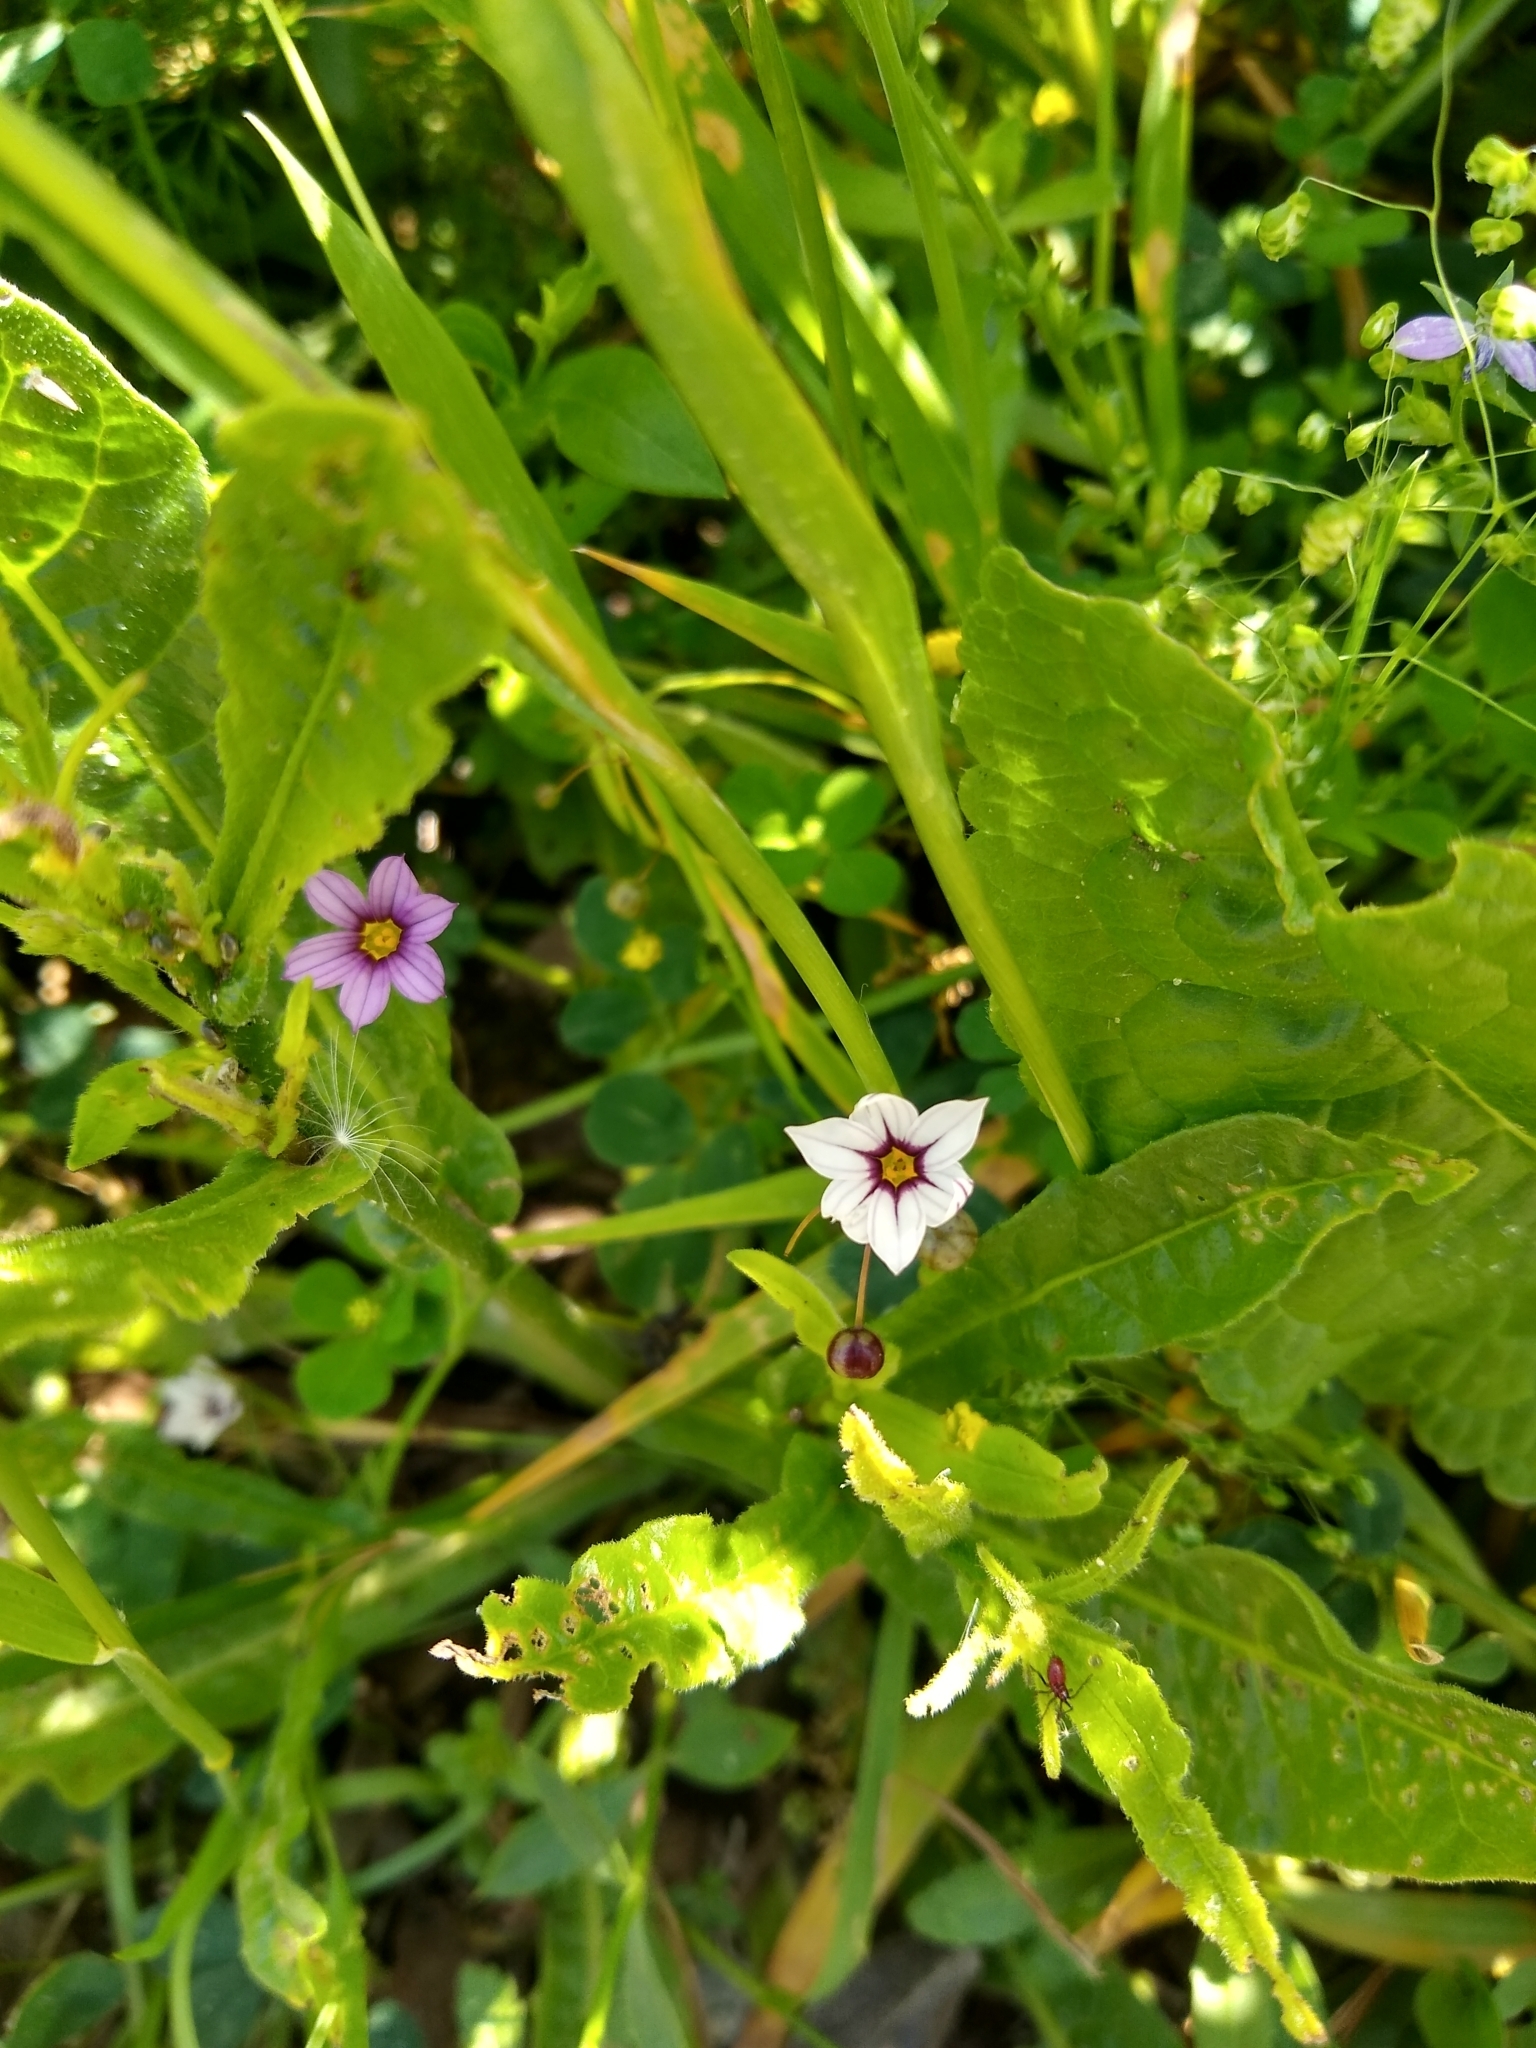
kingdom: Plantae
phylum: Tracheophyta
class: Liliopsida
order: Asparagales
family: Iridaceae
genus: Sisyrinchium
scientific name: Sisyrinchium micranthum
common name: Bermuda pigroot
